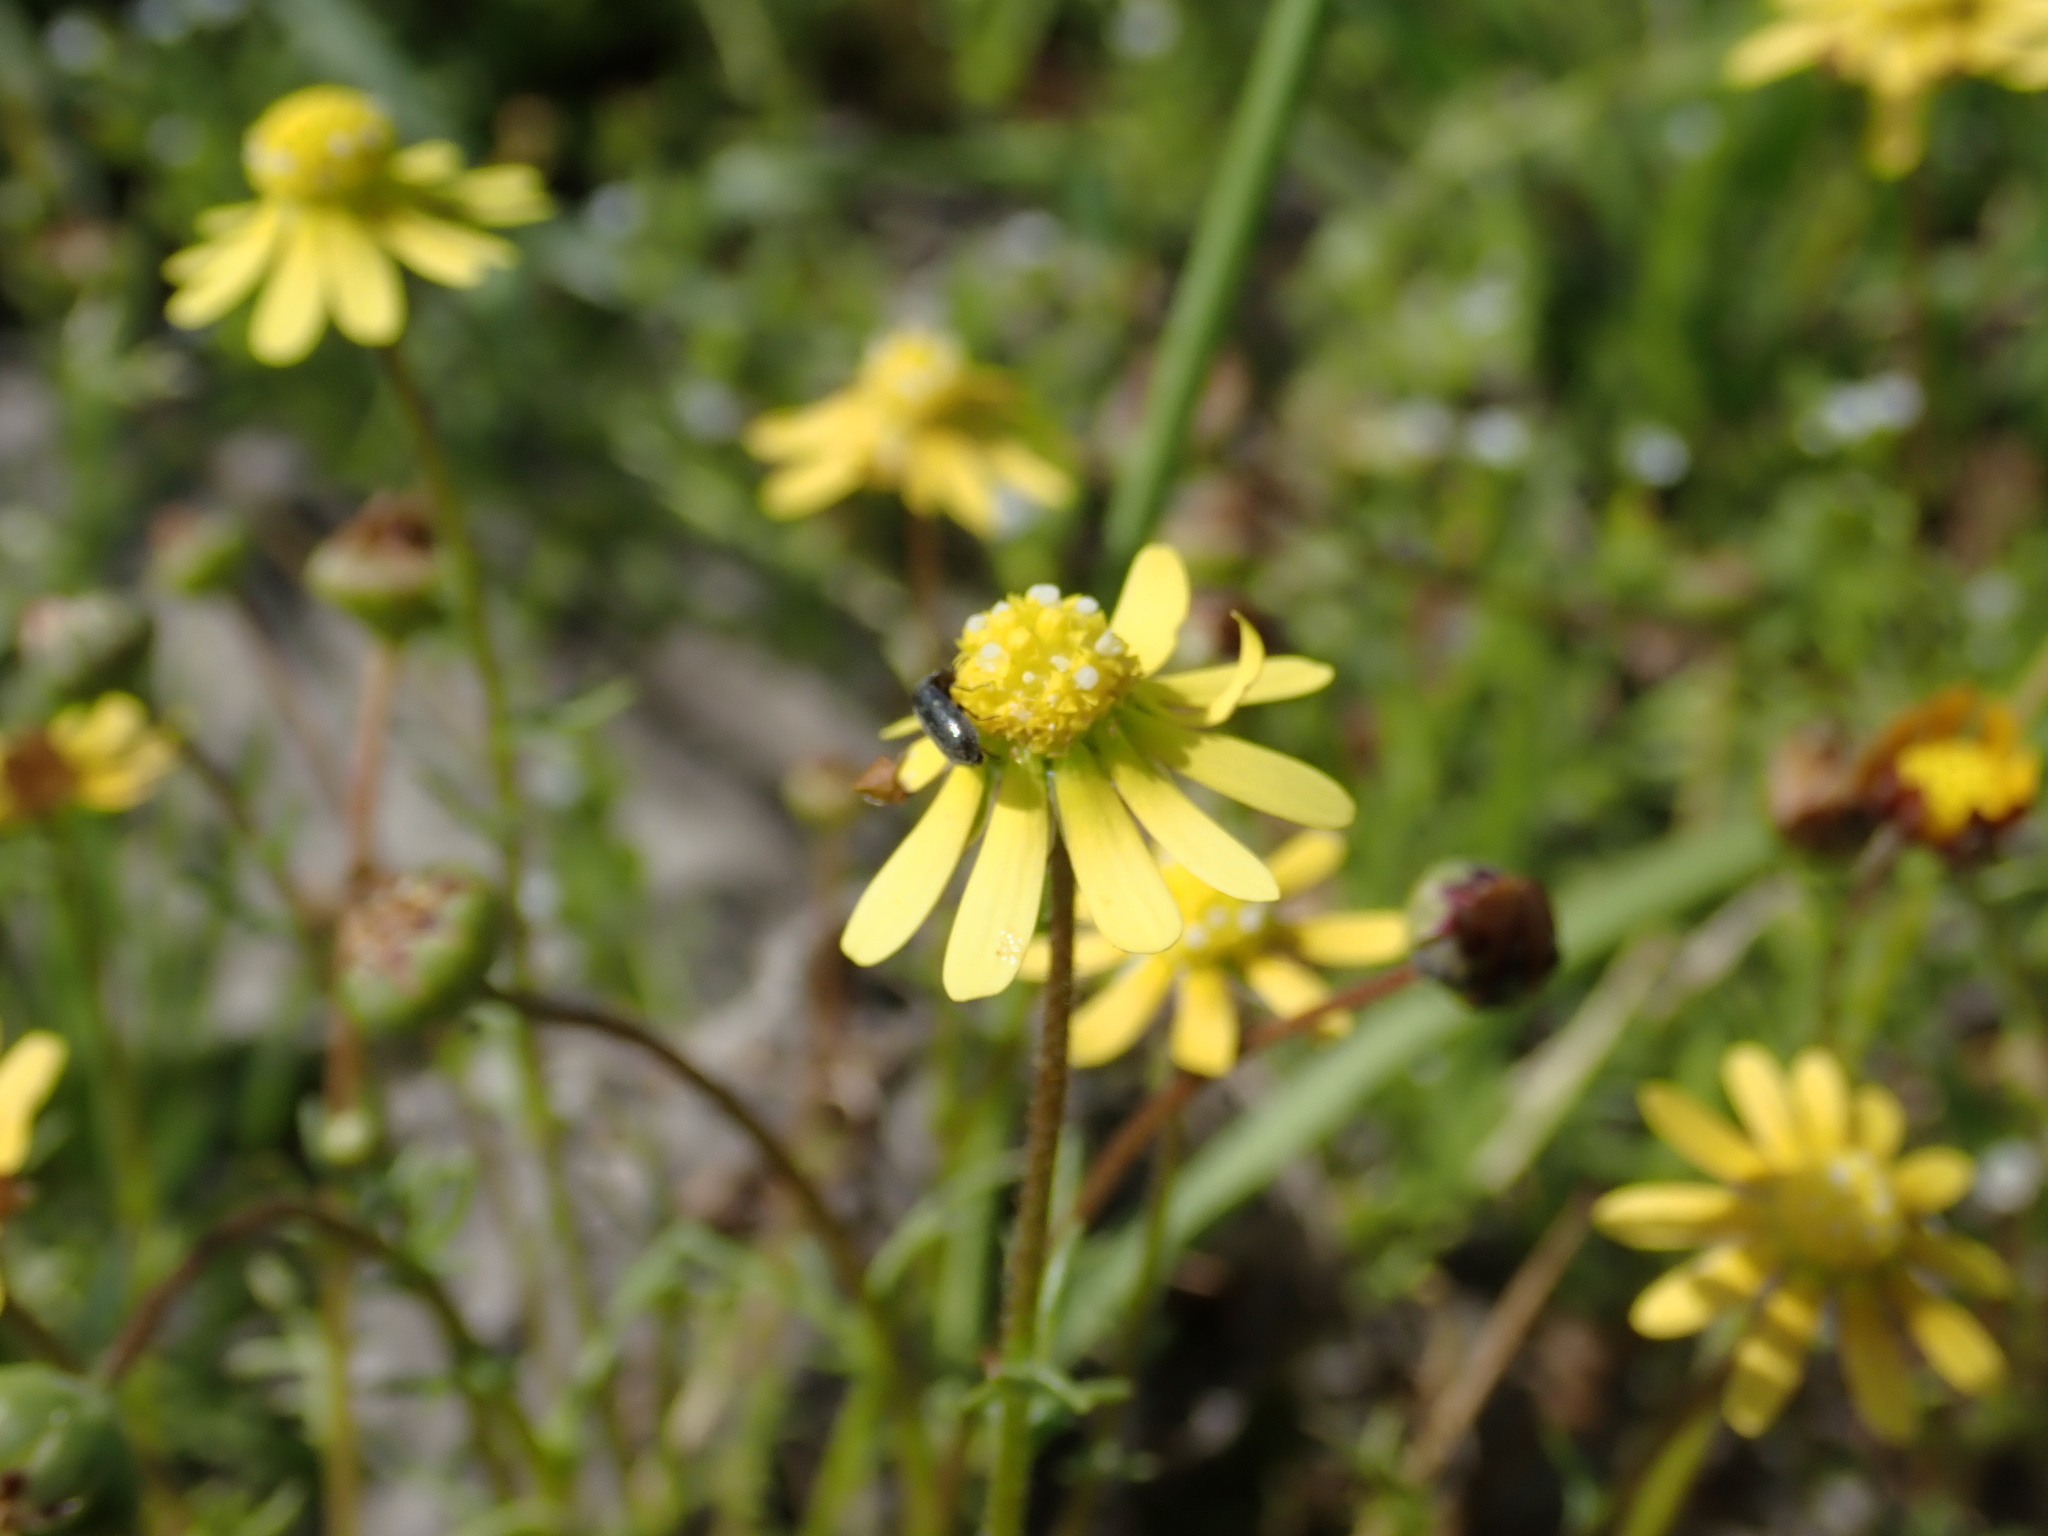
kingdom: Plantae
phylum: Tracheophyta
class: Magnoliopsida
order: Asterales
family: Asteraceae
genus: Blennosperma
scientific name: Blennosperma nanum
